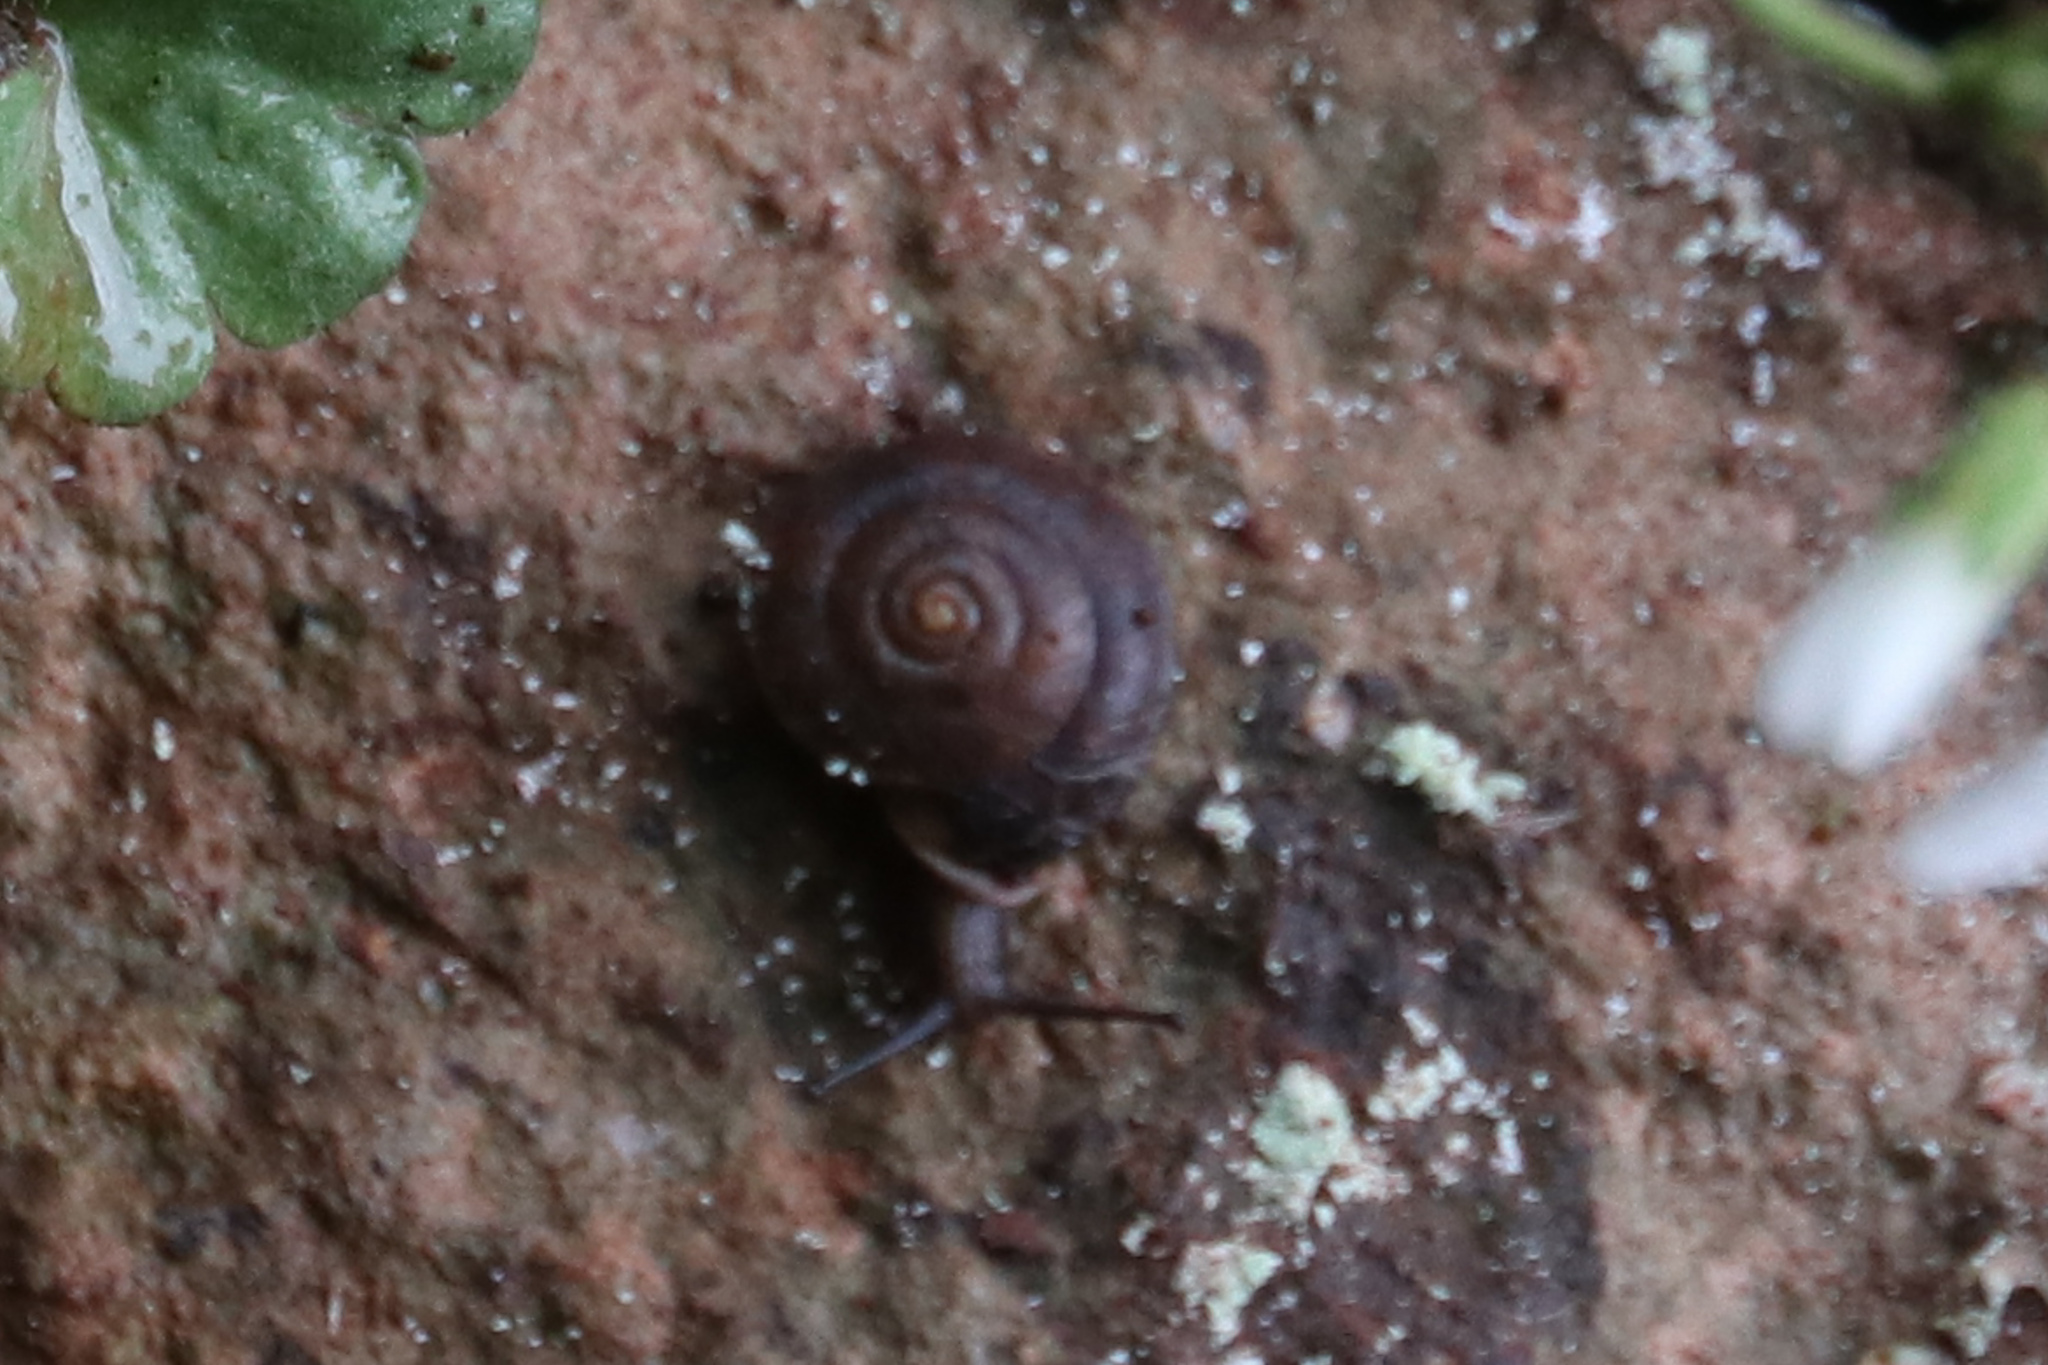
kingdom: Animalia
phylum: Mollusca
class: Gastropoda
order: Stylommatophora
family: Helicidae
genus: Helicigona
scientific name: Helicigona lapicida
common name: Lapidary snail
